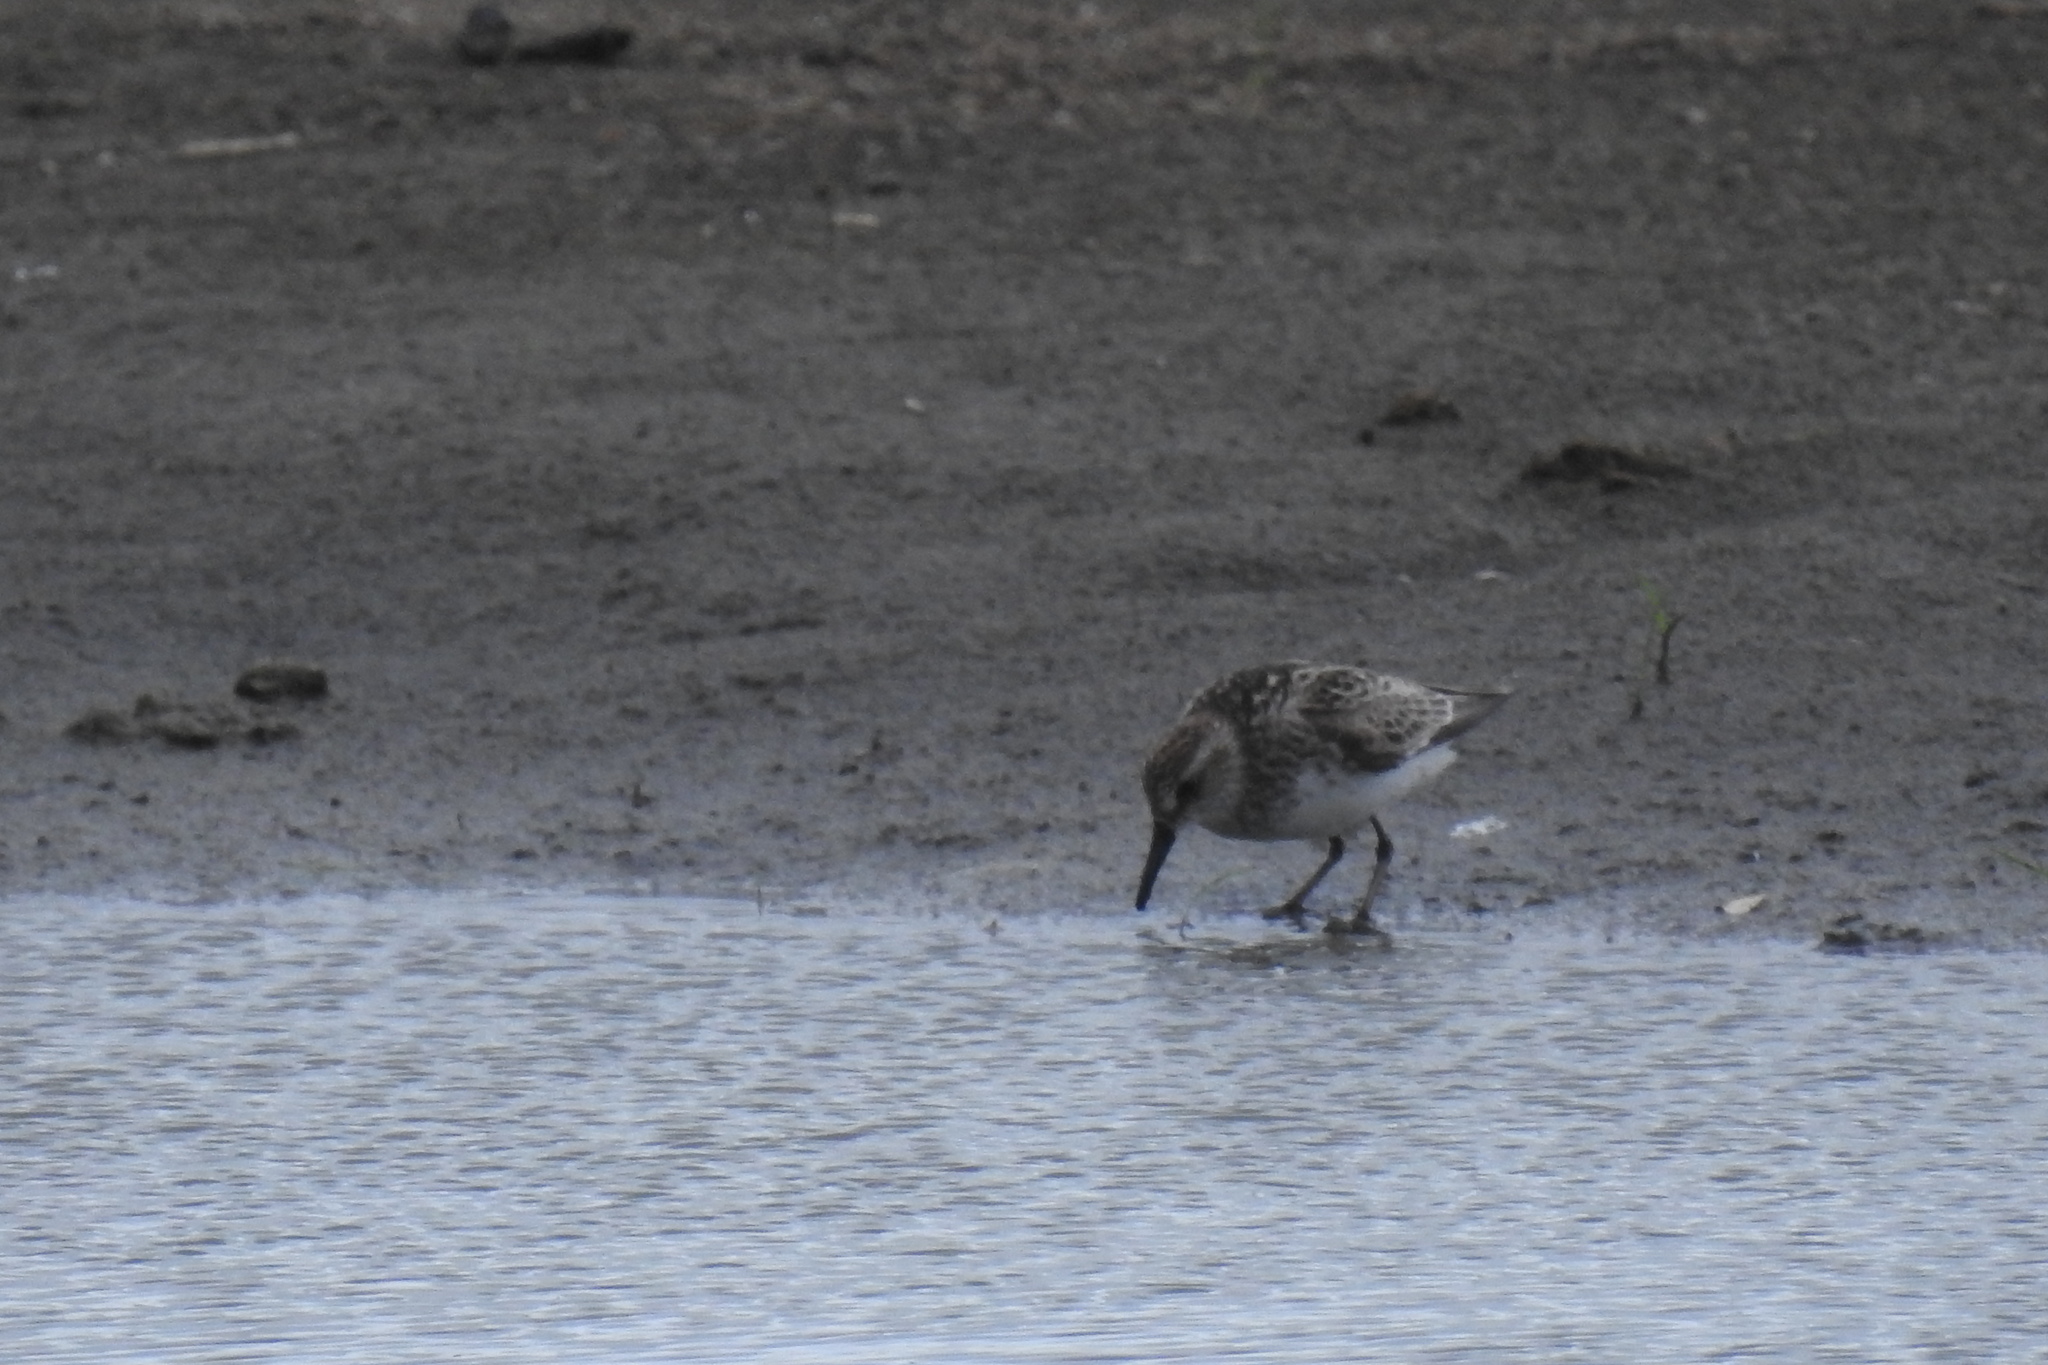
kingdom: Animalia
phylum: Chordata
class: Aves
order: Charadriiformes
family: Scolopacidae
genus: Calidris
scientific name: Calidris pusilla
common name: Semipalmated sandpiper
